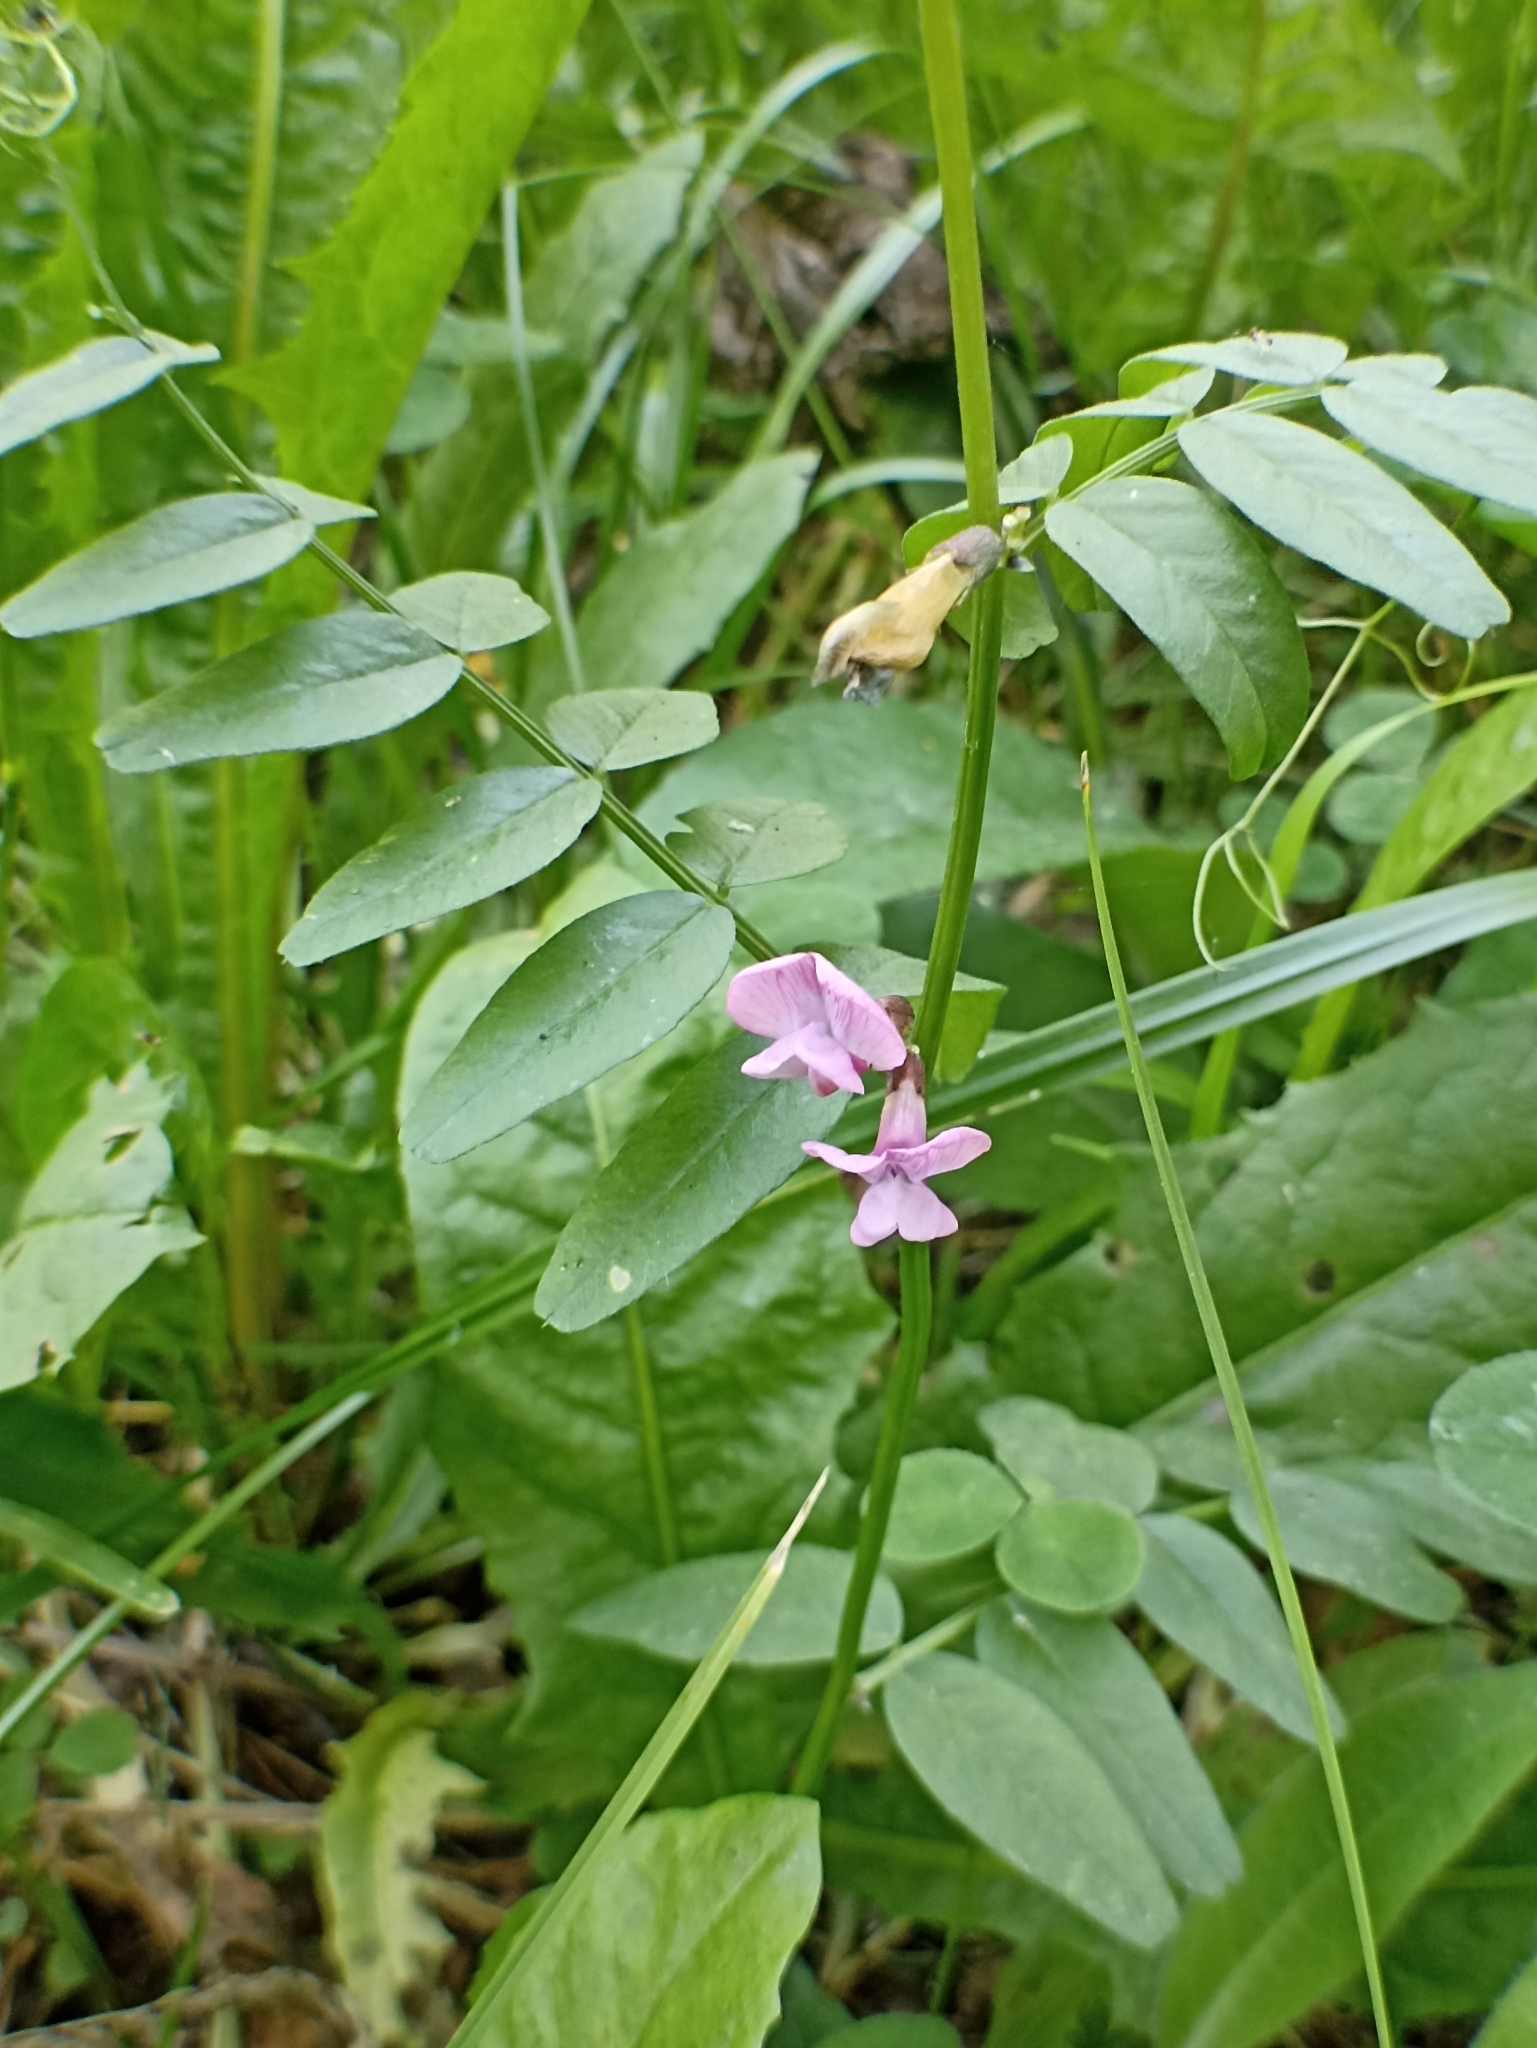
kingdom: Plantae
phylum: Tracheophyta
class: Magnoliopsida
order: Fabales
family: Fabaceae
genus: Vicia
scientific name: Vicia sepium
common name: Bush vetch
